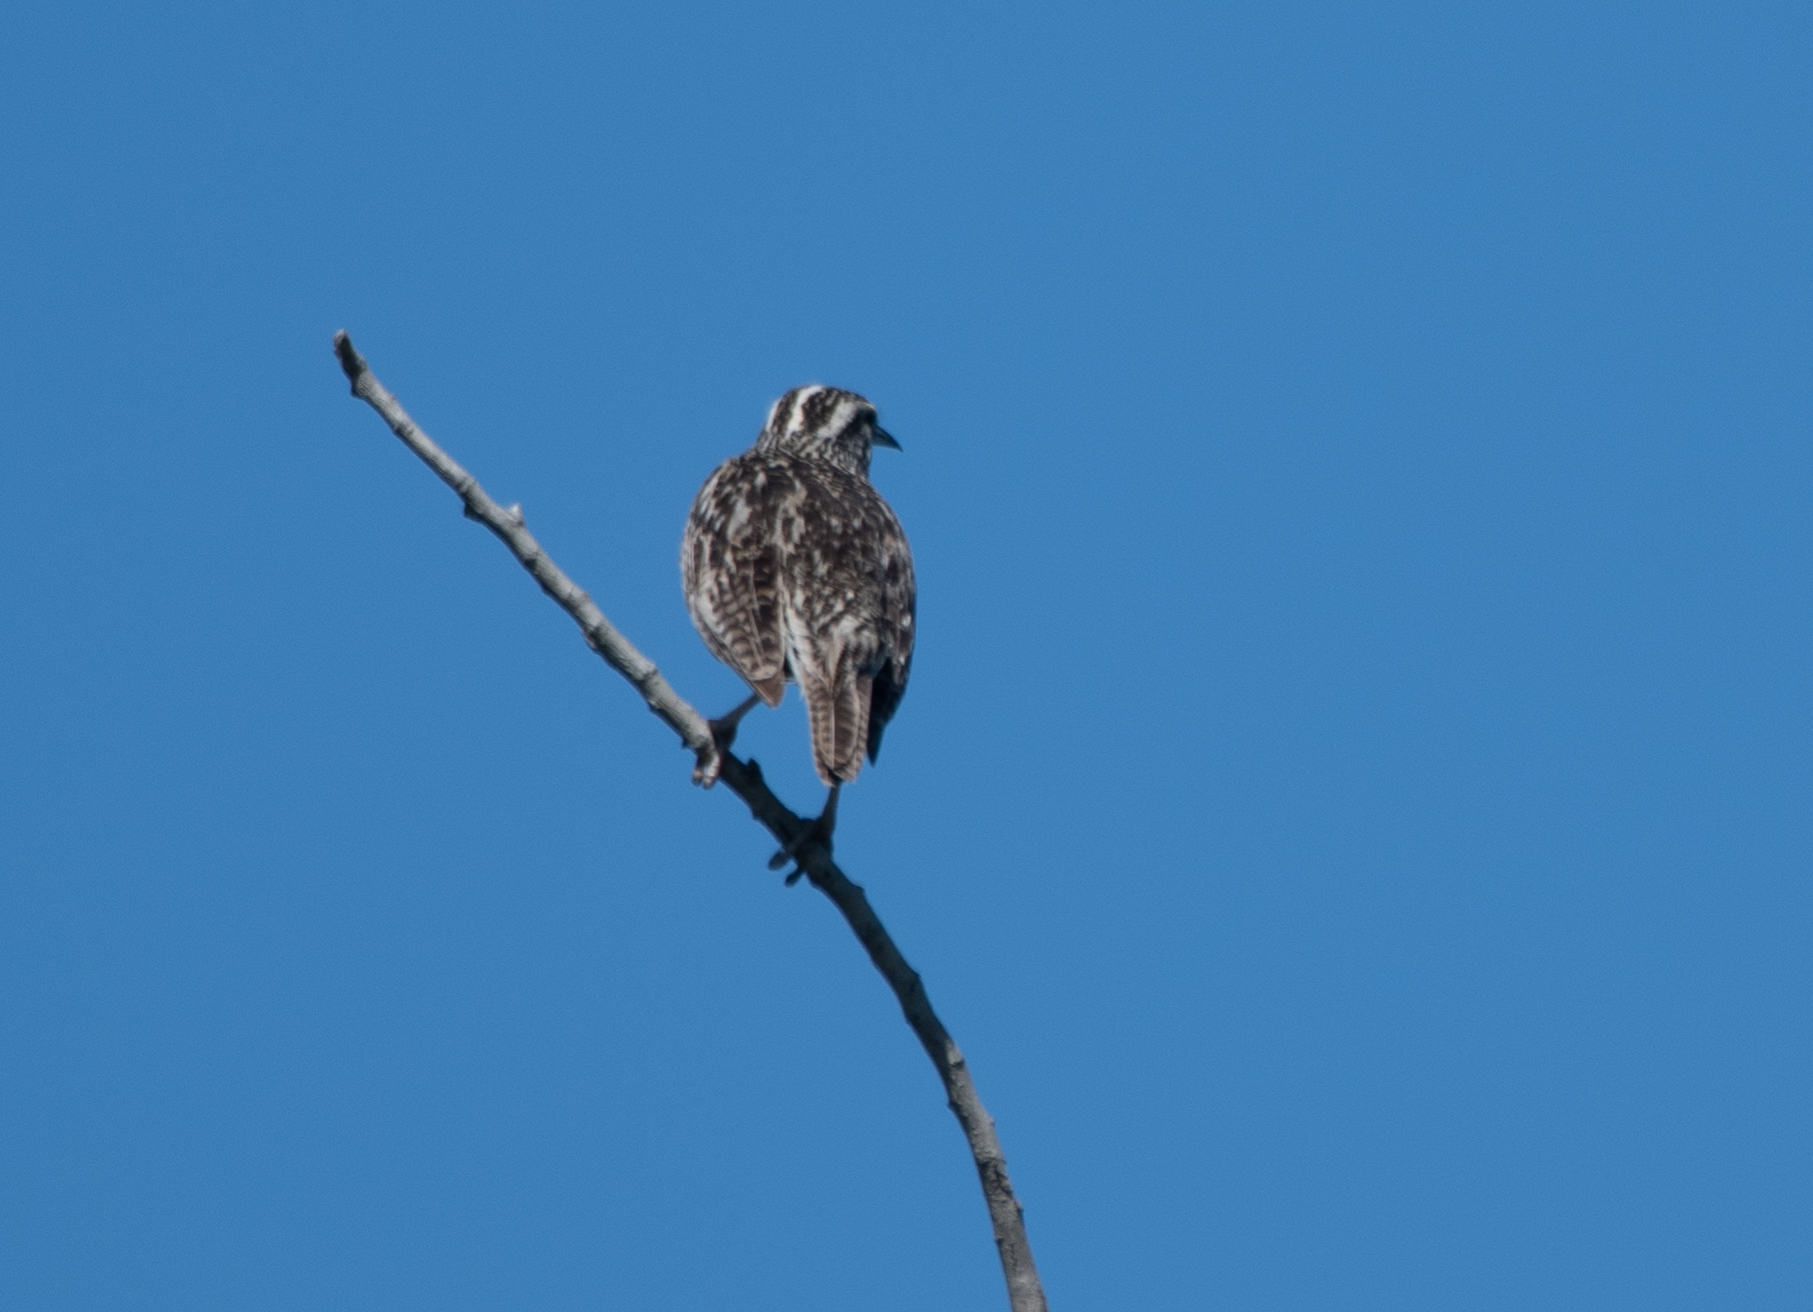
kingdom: Animalia
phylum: Chordata
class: Aves
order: Passeriformes
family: Icteridae
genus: Sturnella
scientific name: Sturnella neglecta
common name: Western meadowlark
